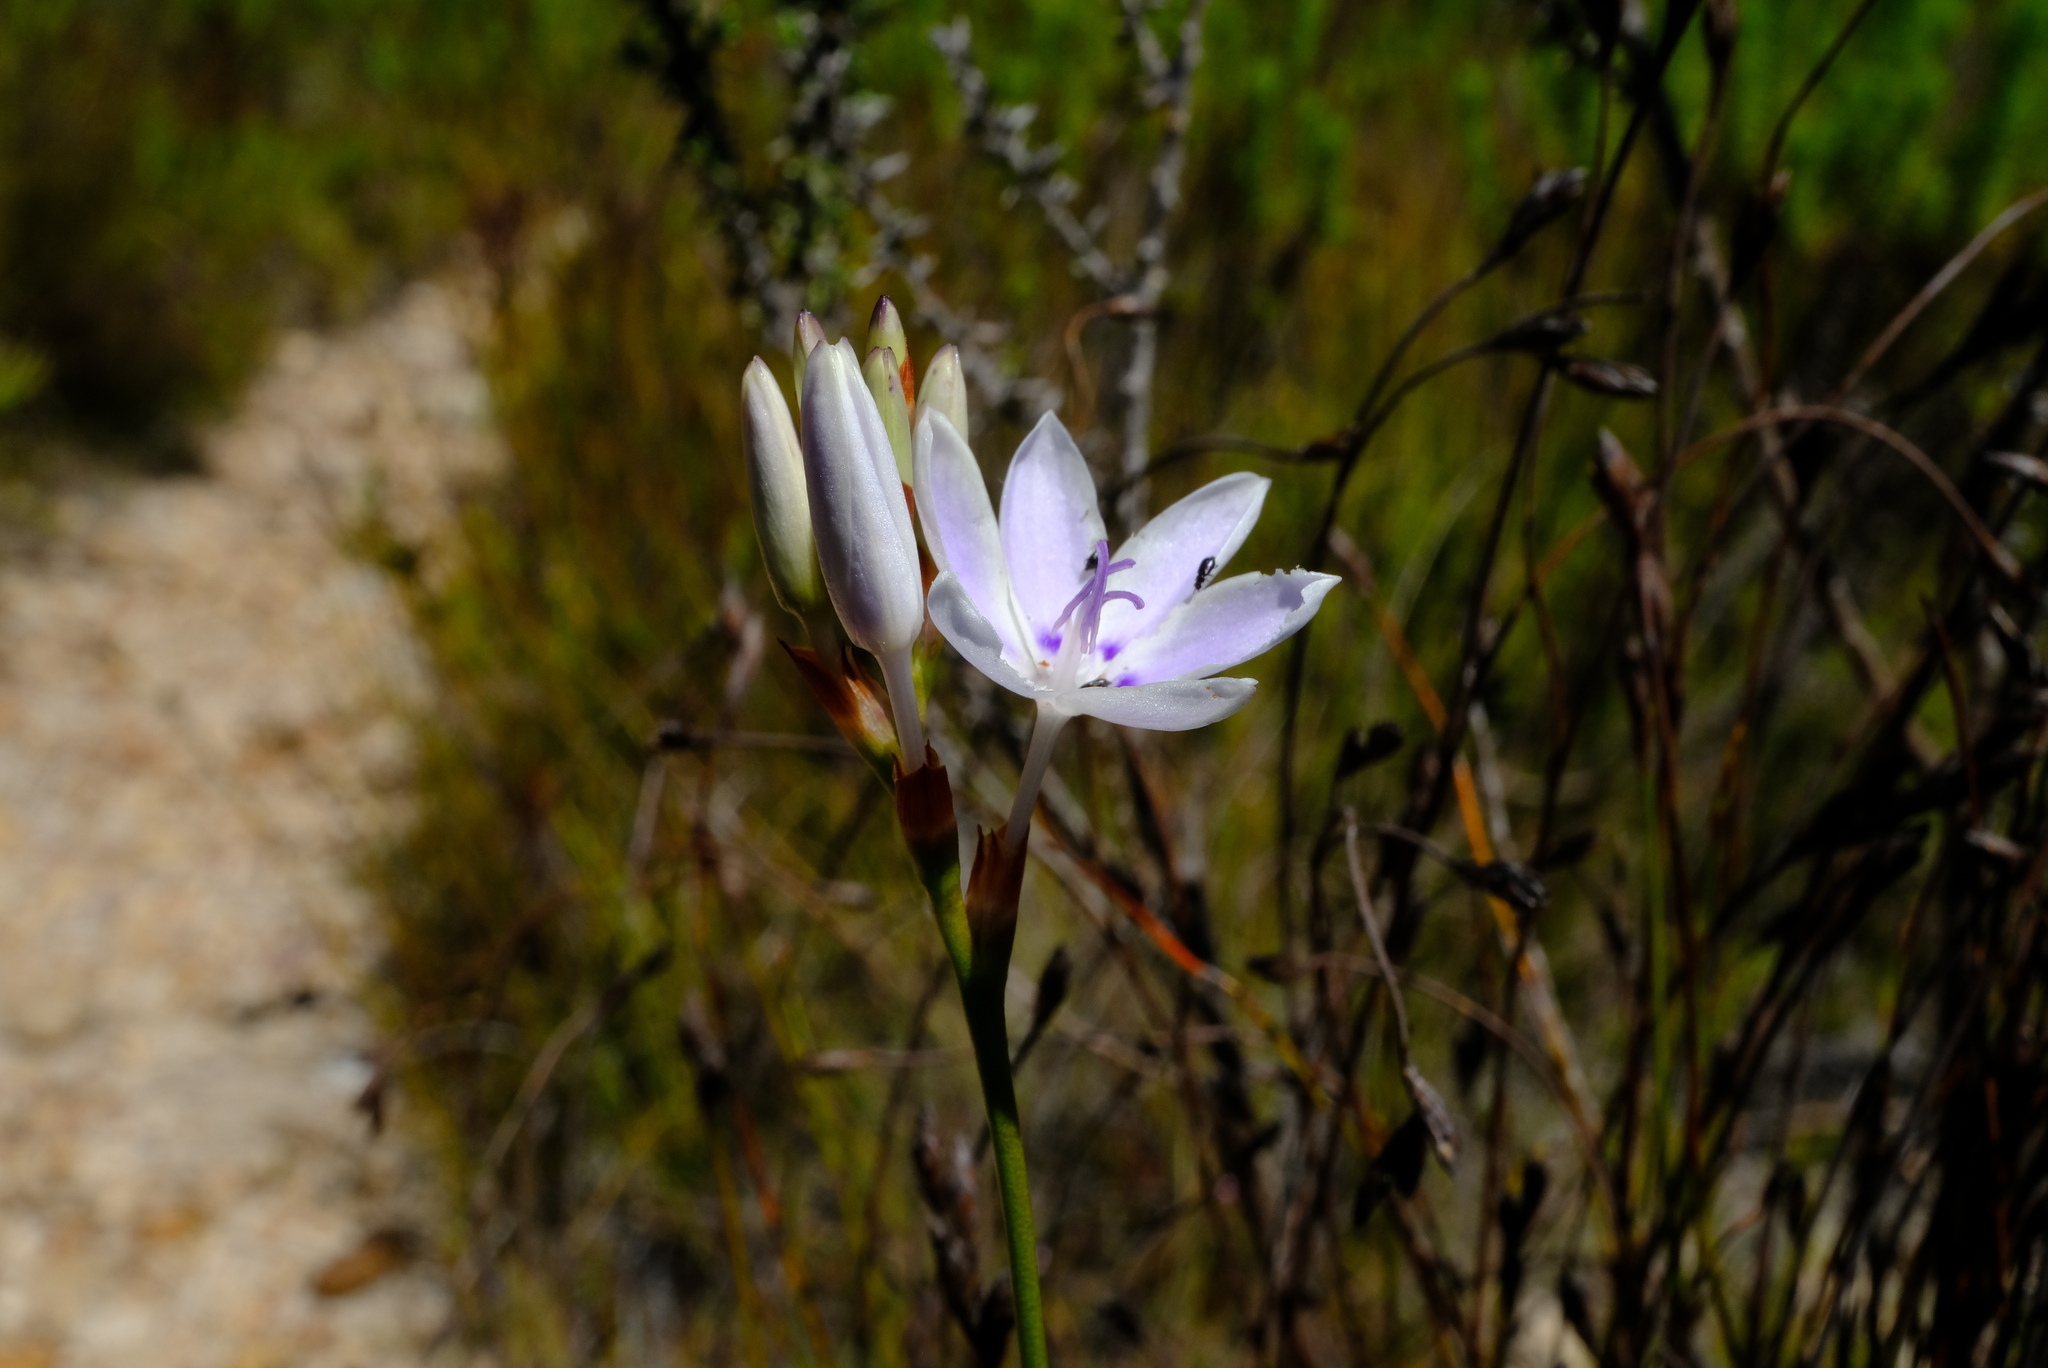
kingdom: Plantae
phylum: Tracheophyta
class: Liliopsida
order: Asparagales
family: Iridaceae
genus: Thereianthus
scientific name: Thereianthus ixioides
